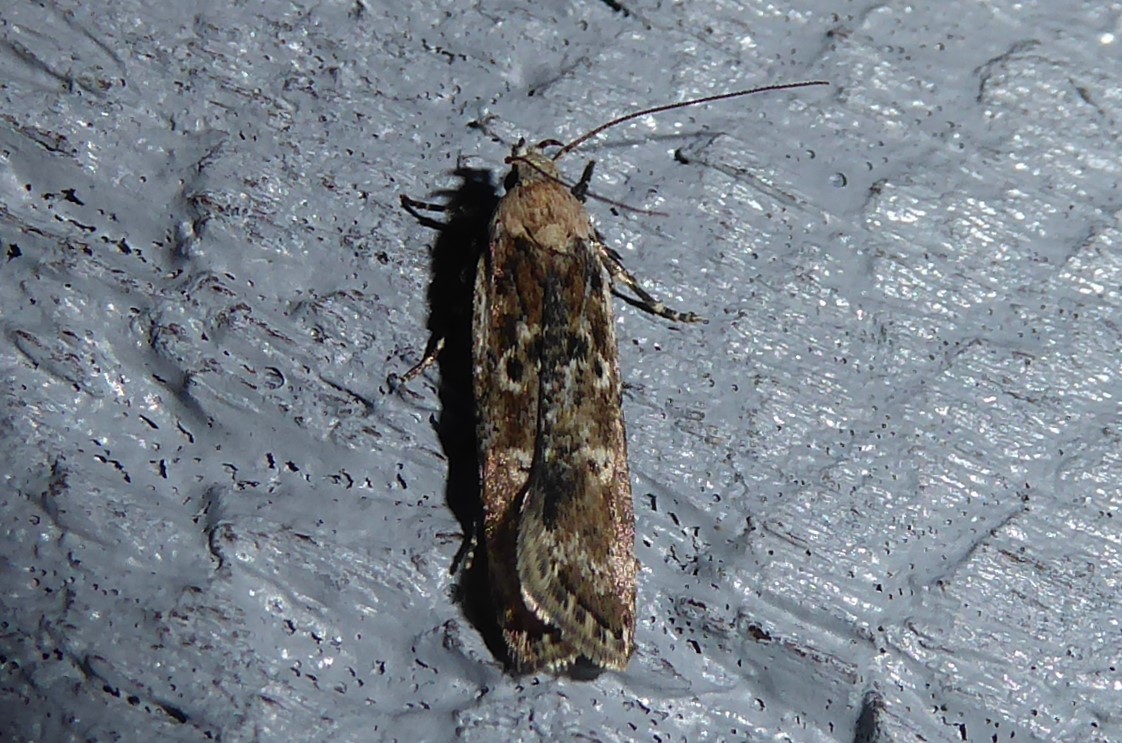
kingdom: Animalia
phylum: Arthropoda
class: Insecta
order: Lepidoptera
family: Gelechiidae
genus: Anisoplaca
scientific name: Anisoplaca achyrota
